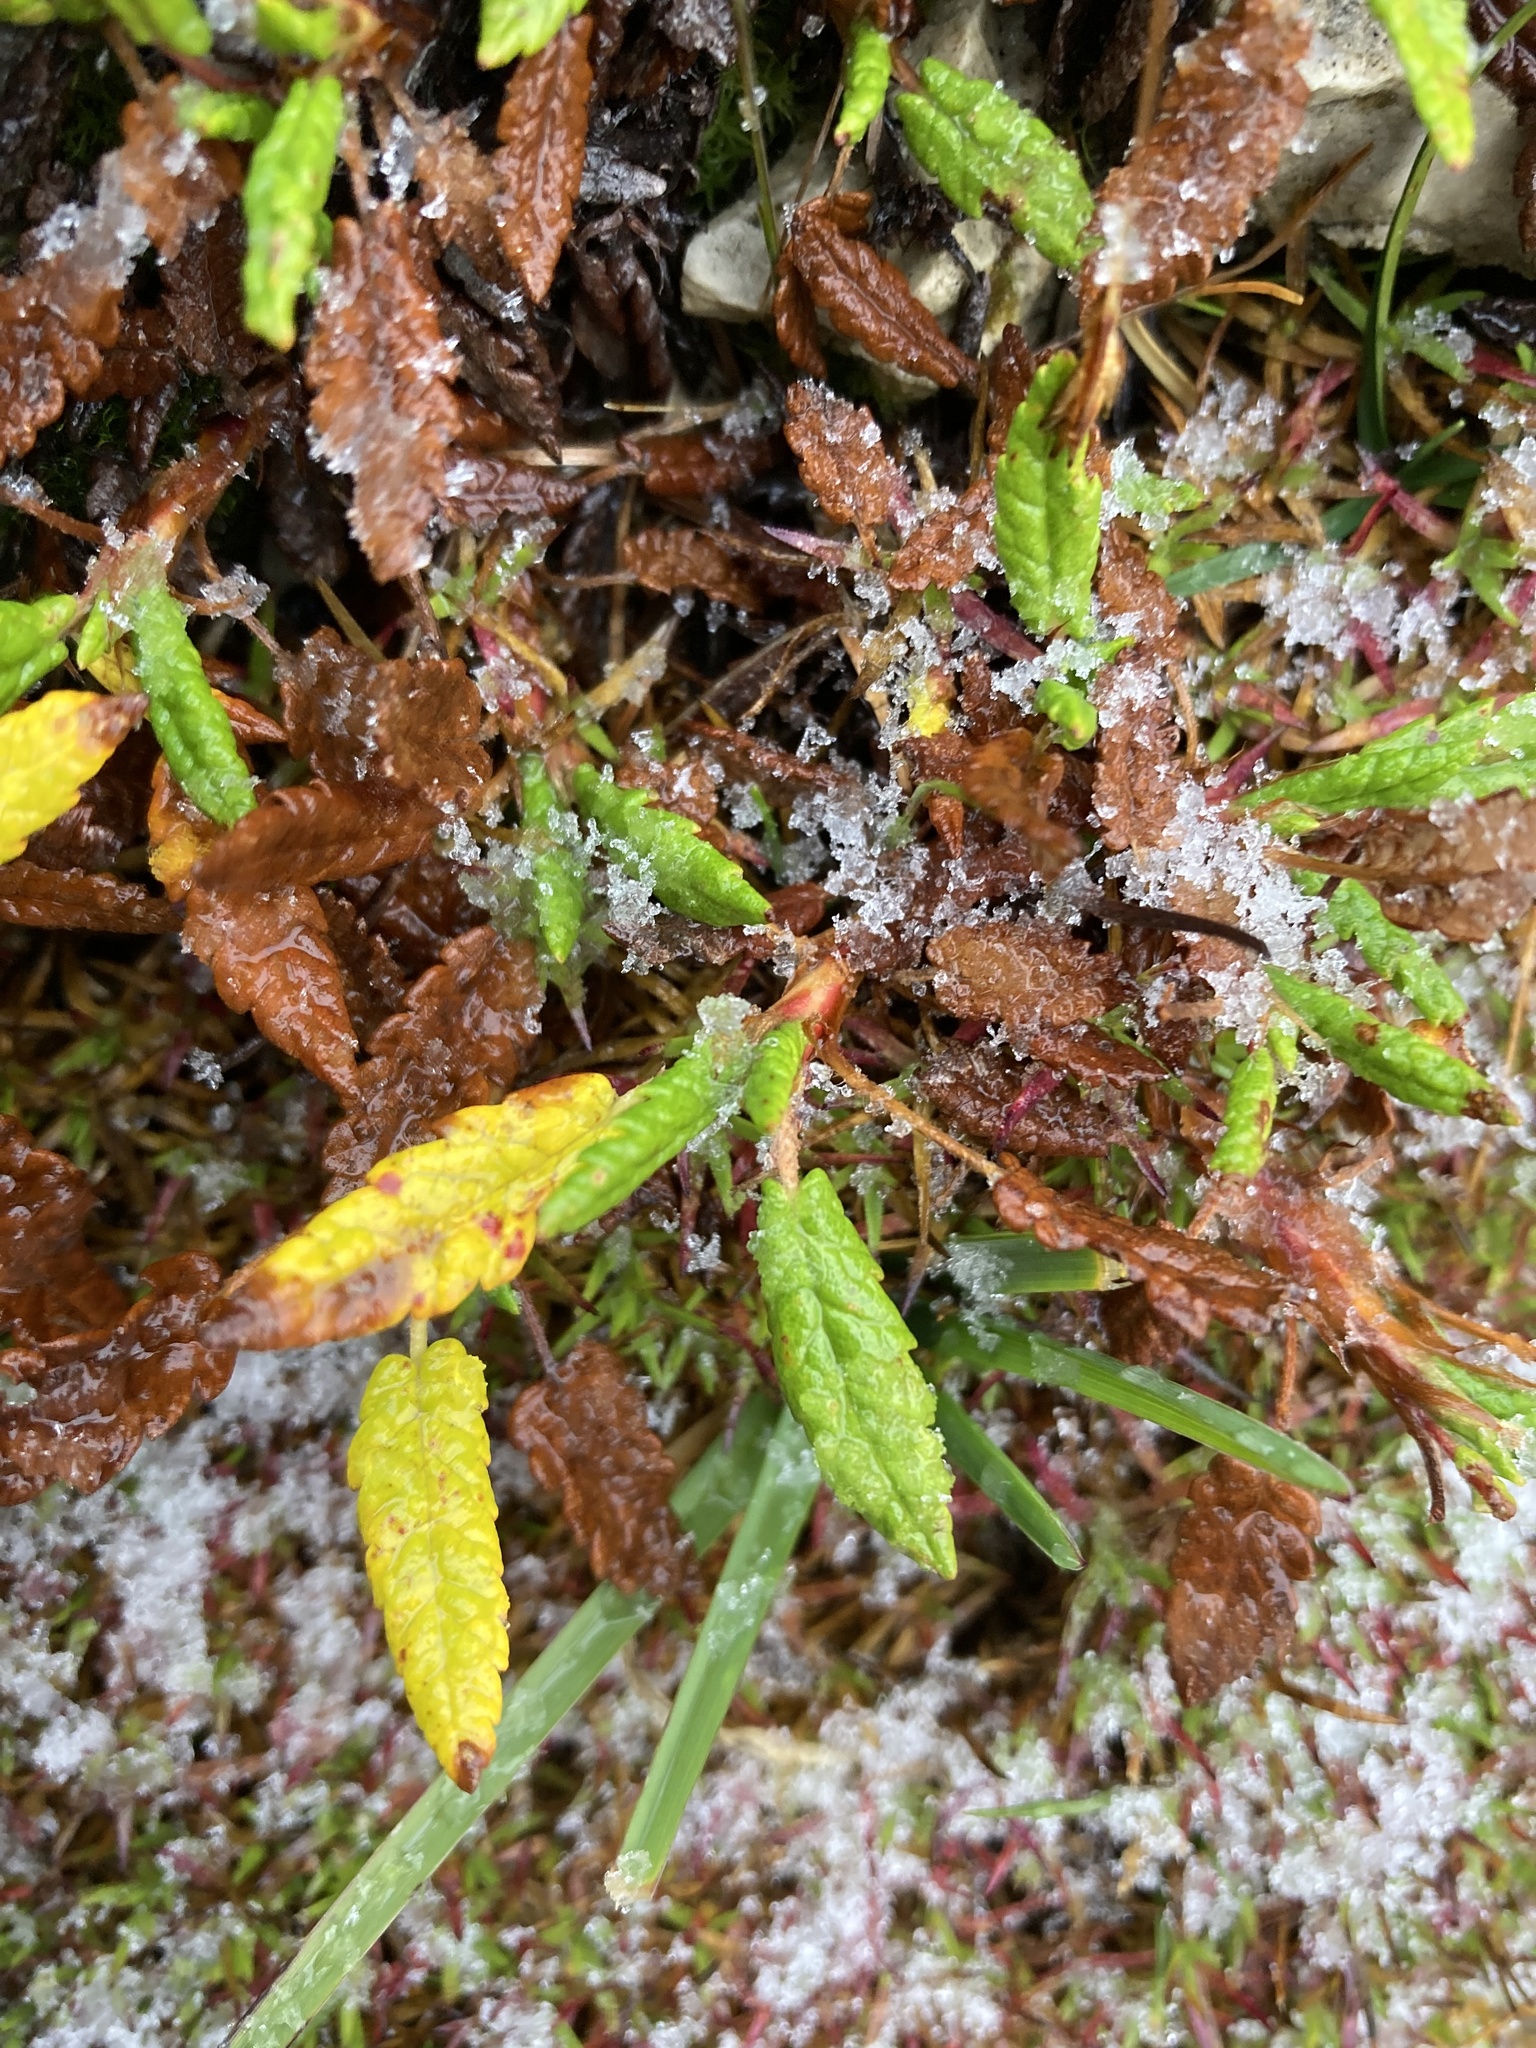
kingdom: Plantae
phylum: Tracheophyta
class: Magnoliopsida
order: Rosales
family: Rosaceae
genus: Dryas
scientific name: Dryas octopetala
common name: Eight-petal mountain-avens
